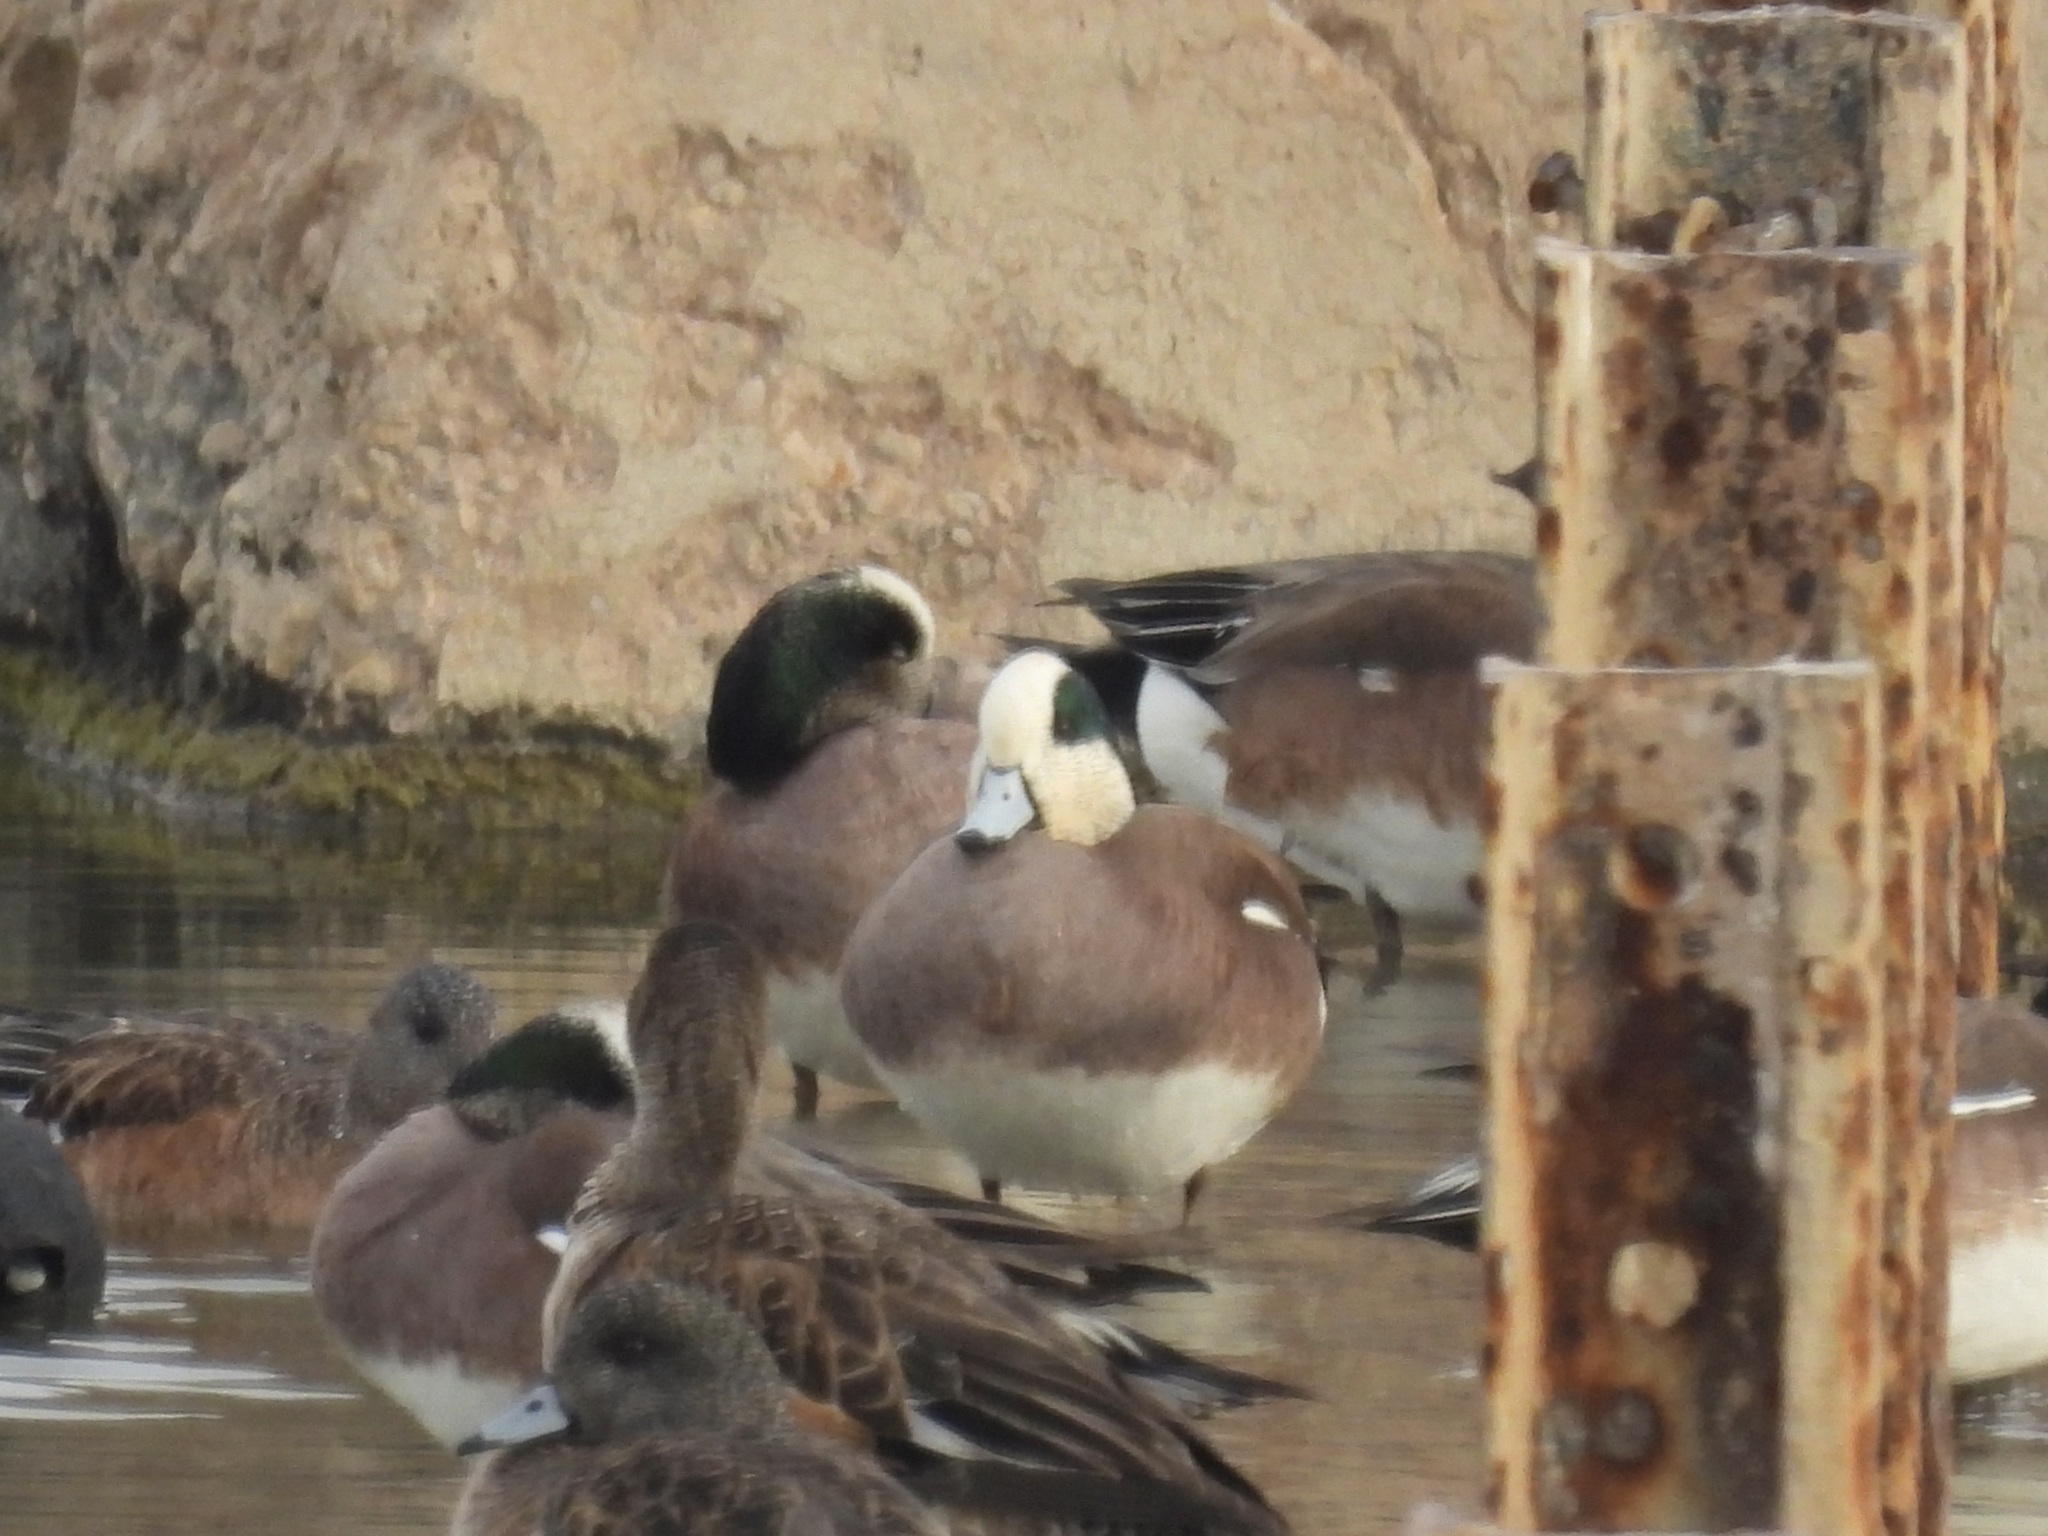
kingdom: Animalia
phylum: Chordata
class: Aves
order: Anseriformes
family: Anatidae
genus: Mareca
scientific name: Mareca americana
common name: American wigeon
